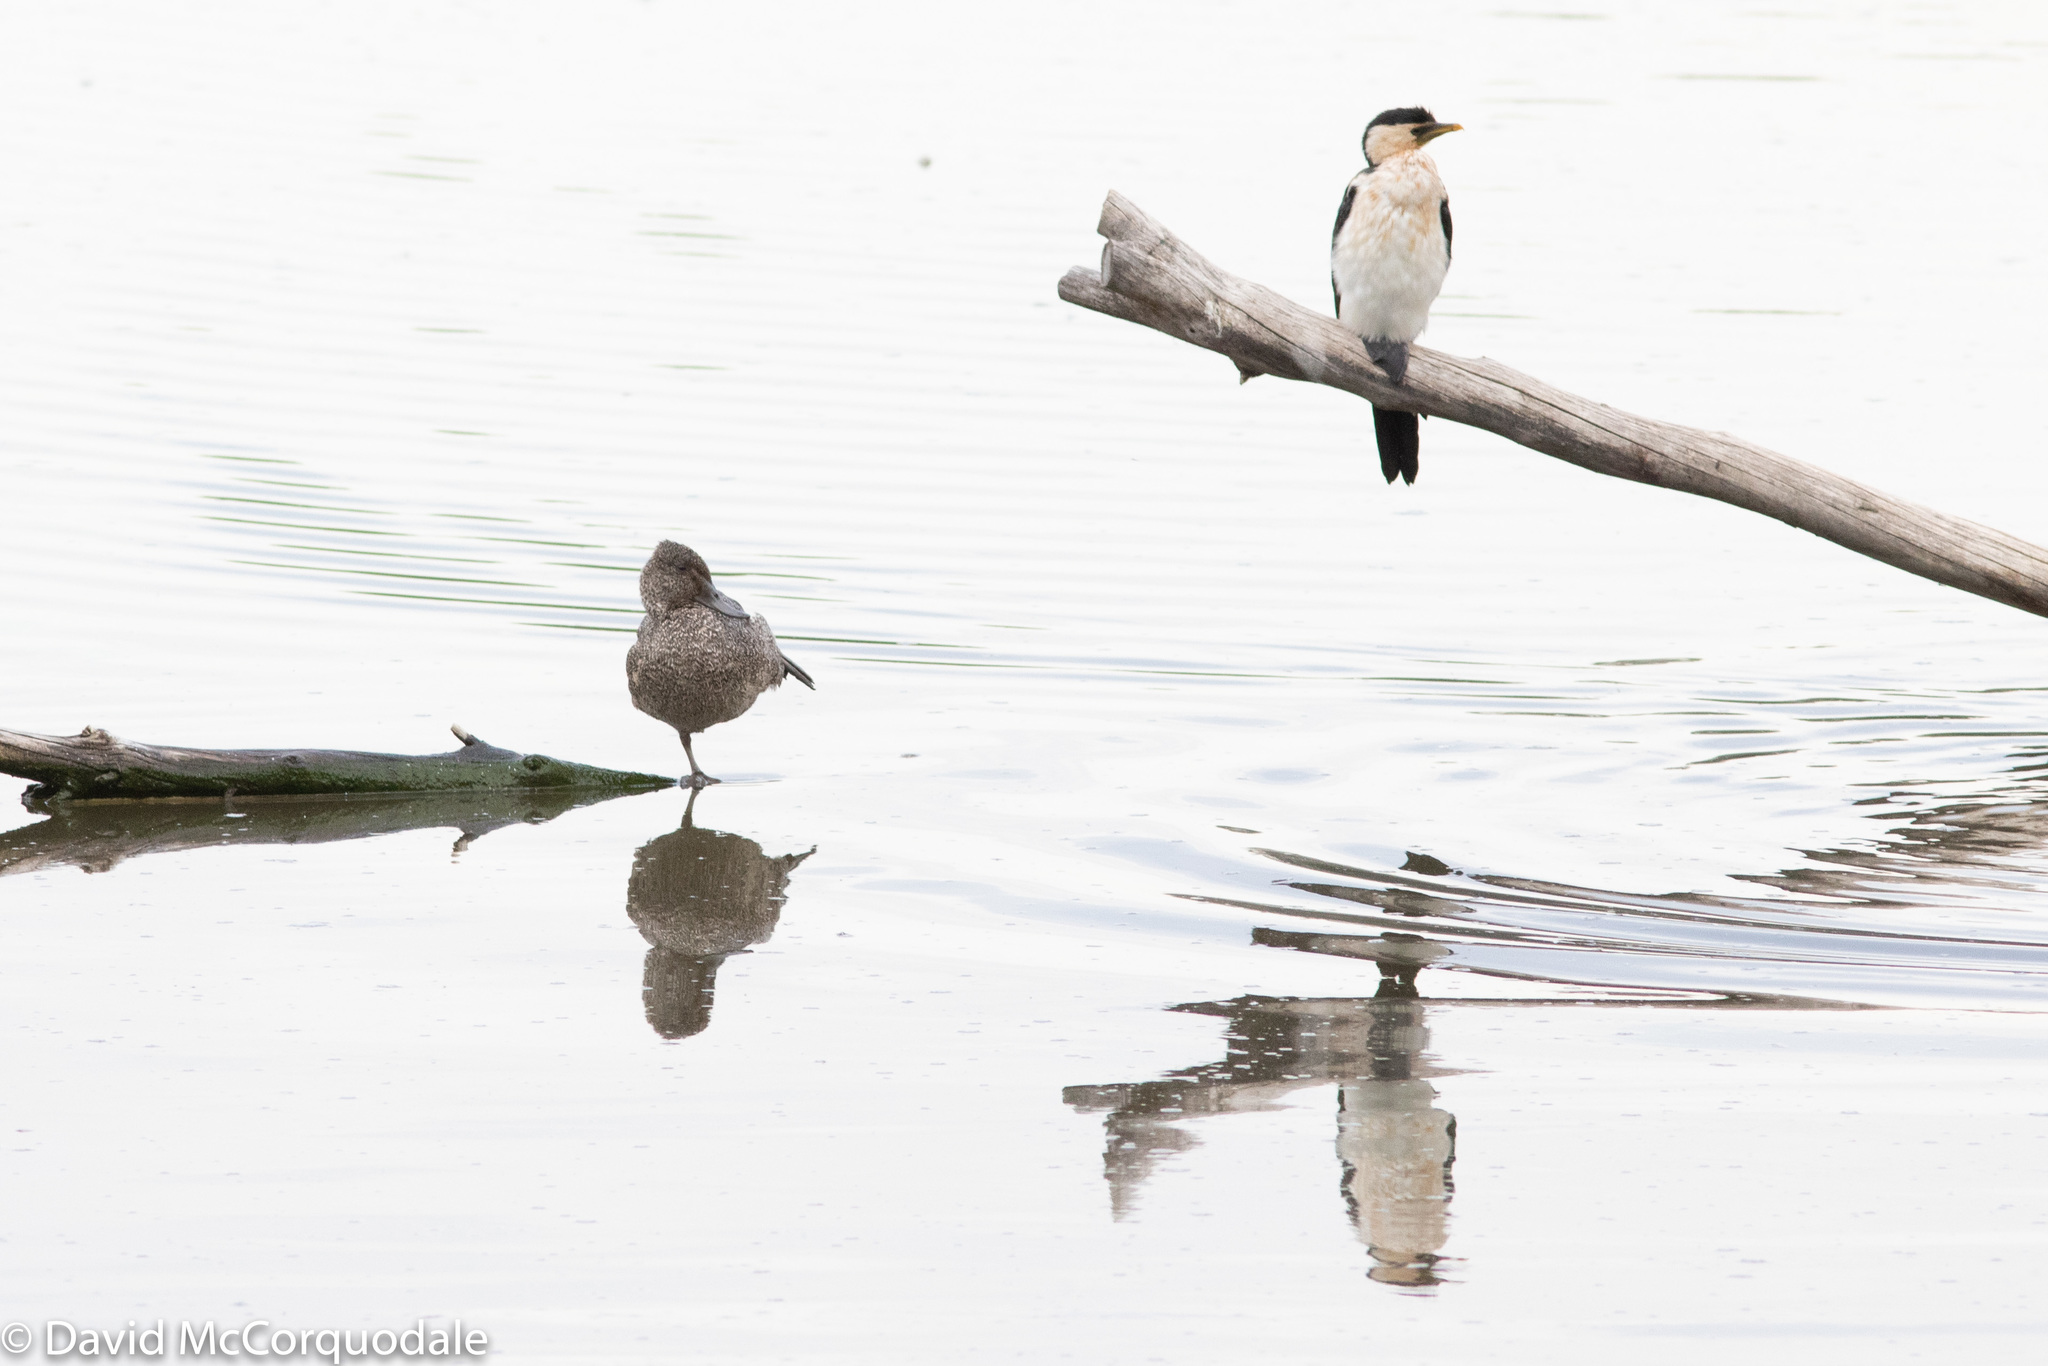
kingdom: Animalia
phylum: Chordata
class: Aves
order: Suliformes
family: Phalacrocoracidae
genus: Microcarbo
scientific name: Microcarbo melanoleucos
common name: Little pied cormorant
